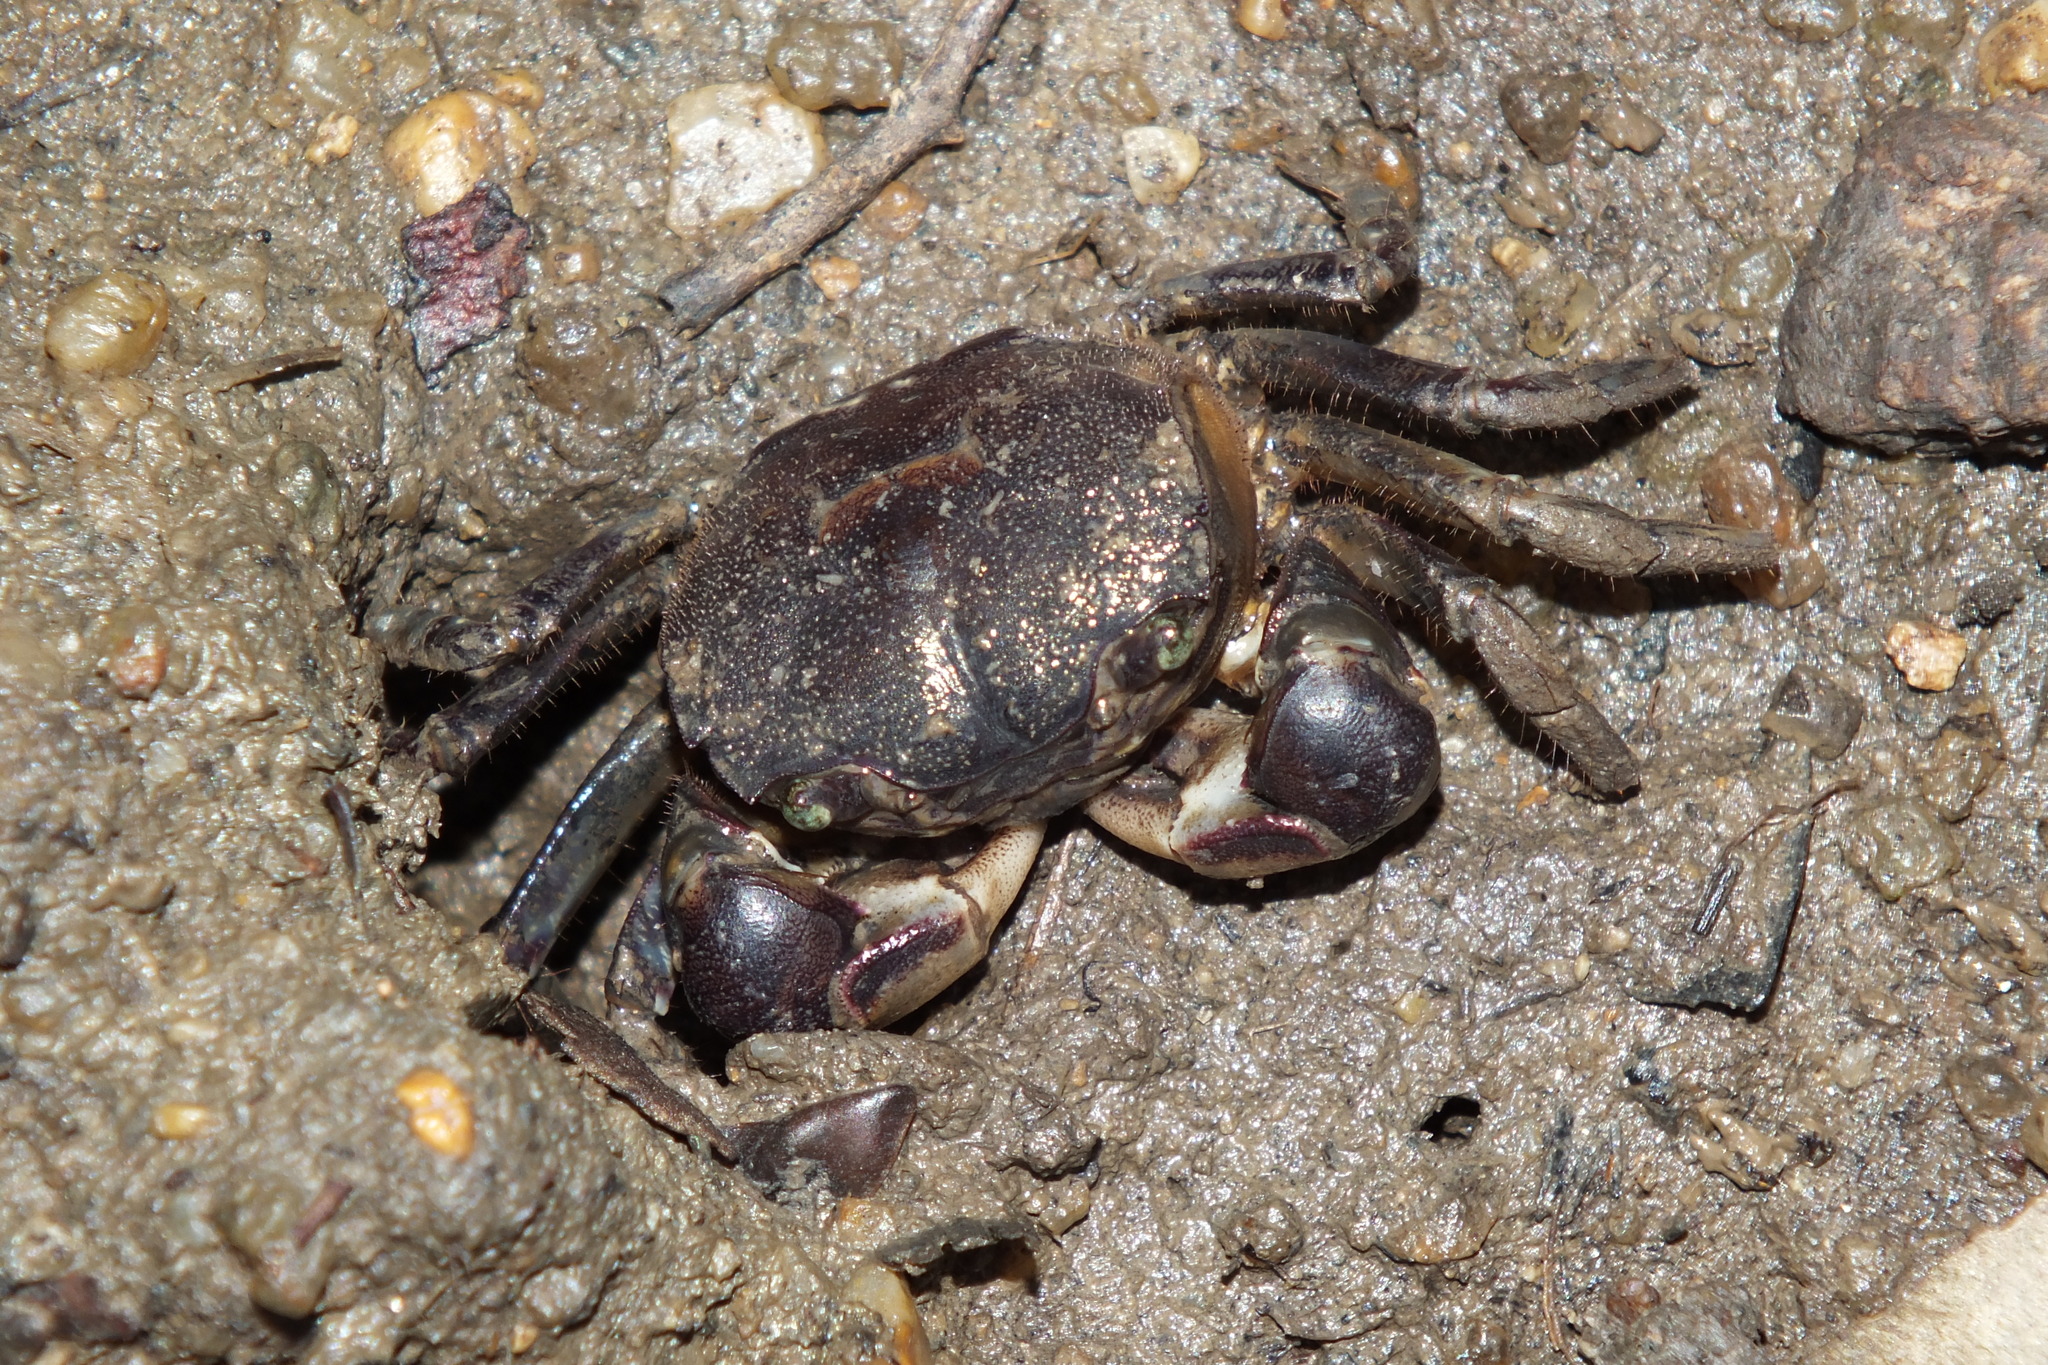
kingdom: Animalia
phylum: Arthropoda
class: Malacostraca
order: Decapoda
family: Varunidae
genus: Pseudohelice
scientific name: Pseudohelice subquadrata
